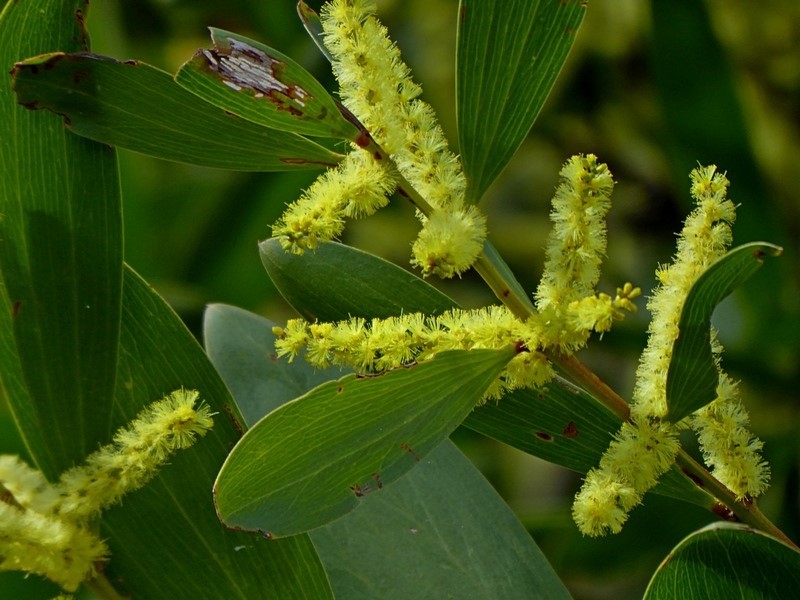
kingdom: Plantae
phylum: Tracheophyta
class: Magnoliopsida
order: Fabales
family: Fabaceae
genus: Acacia
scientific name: Acacia longifolia
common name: Sydney golden wattle
